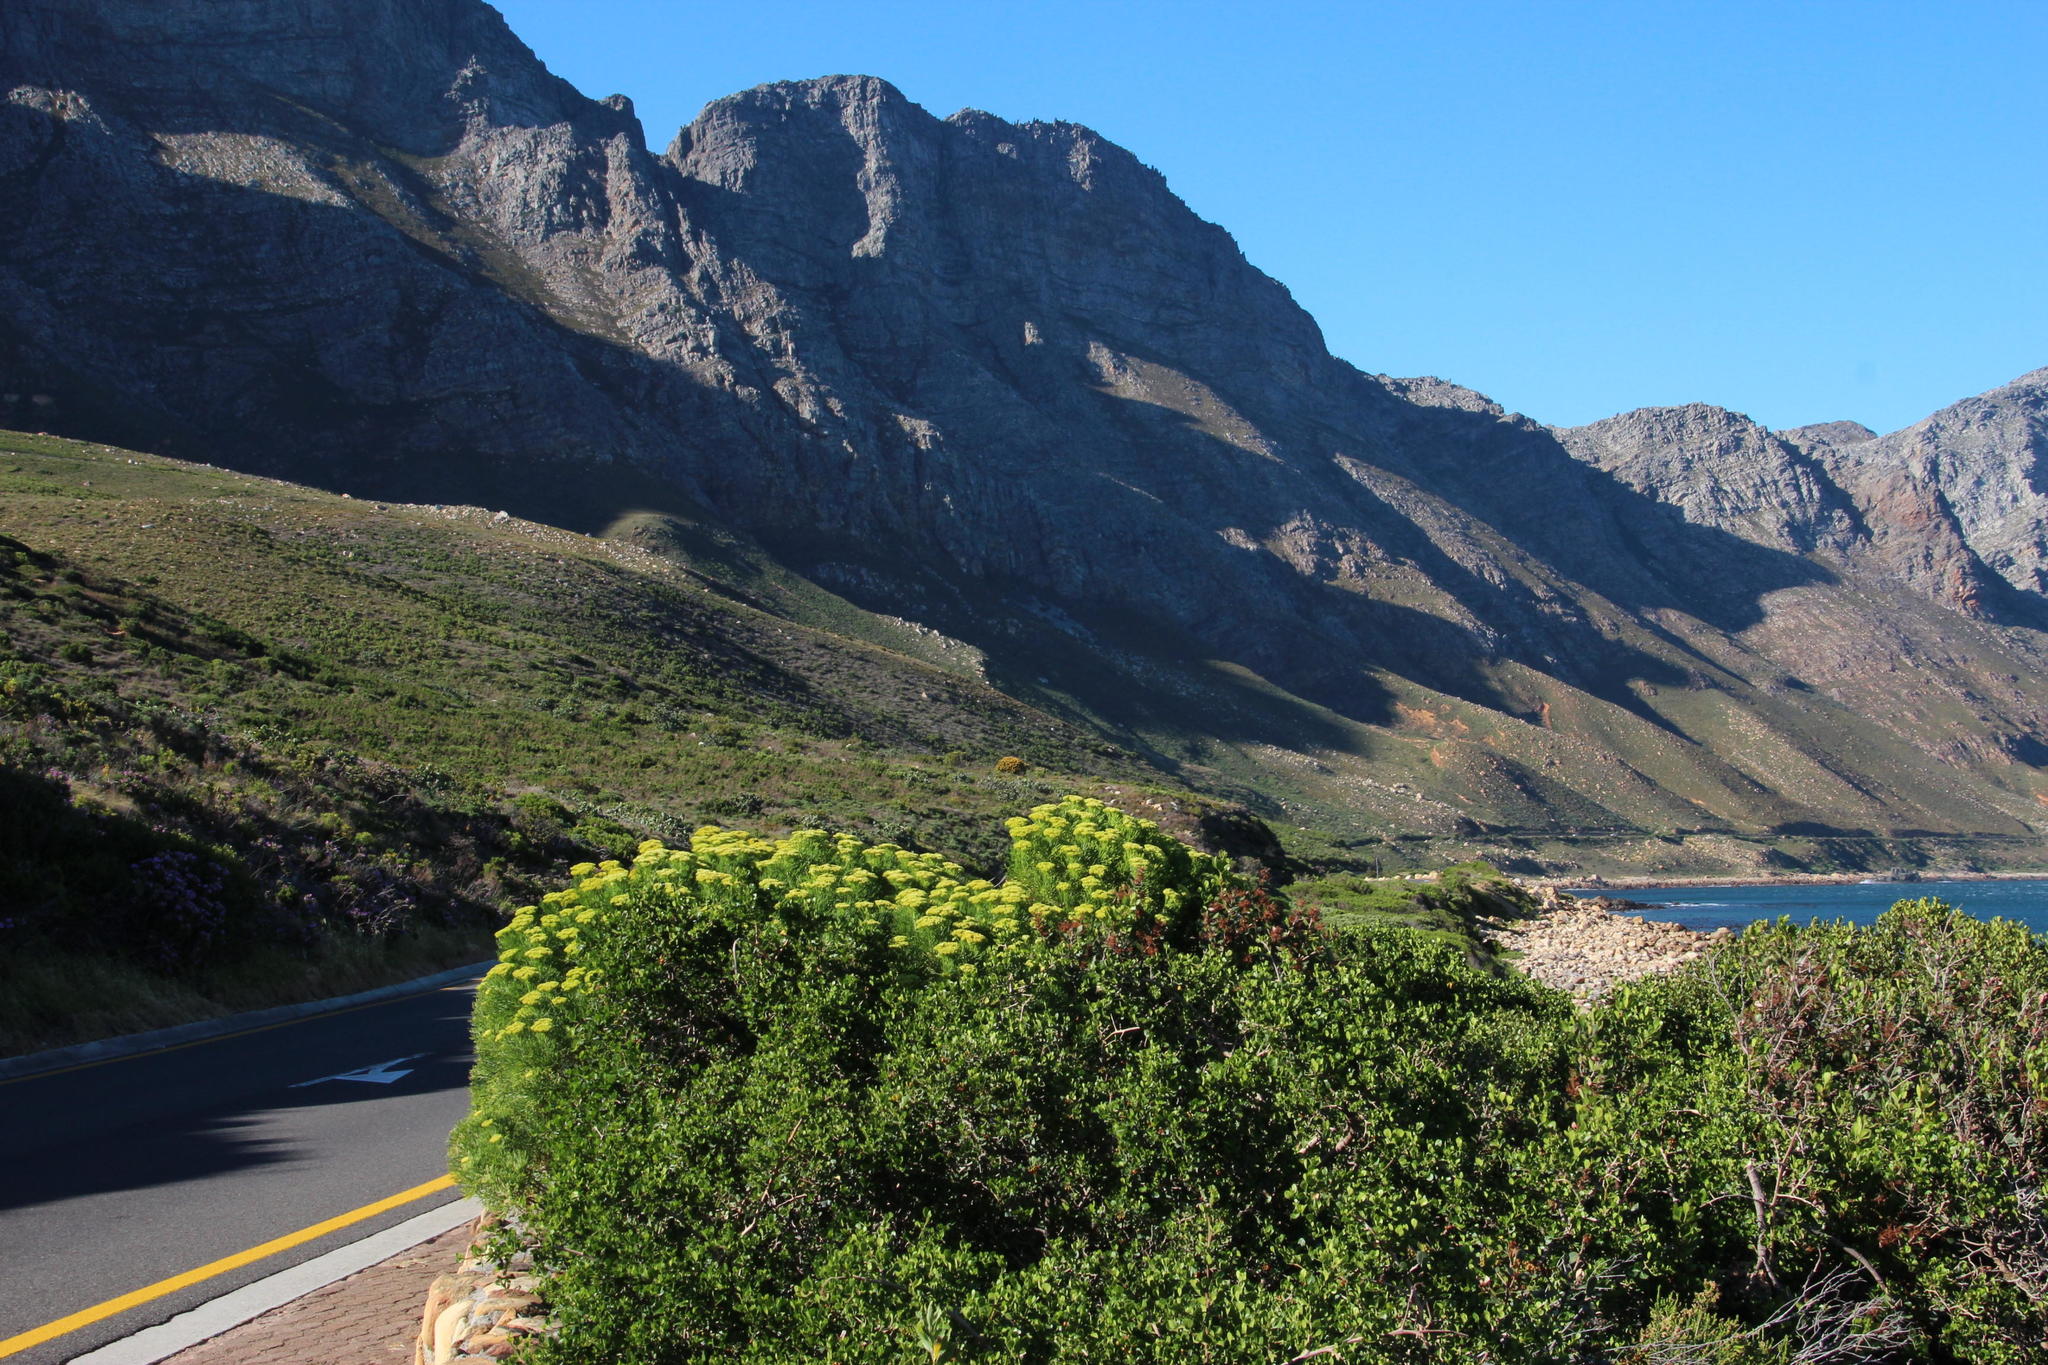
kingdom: Plantae
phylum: Tracheophyta
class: Magnoliopsida
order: Asterales
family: Asteraceae
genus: Hymenolepis
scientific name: Hymenolepis crithmifolia
